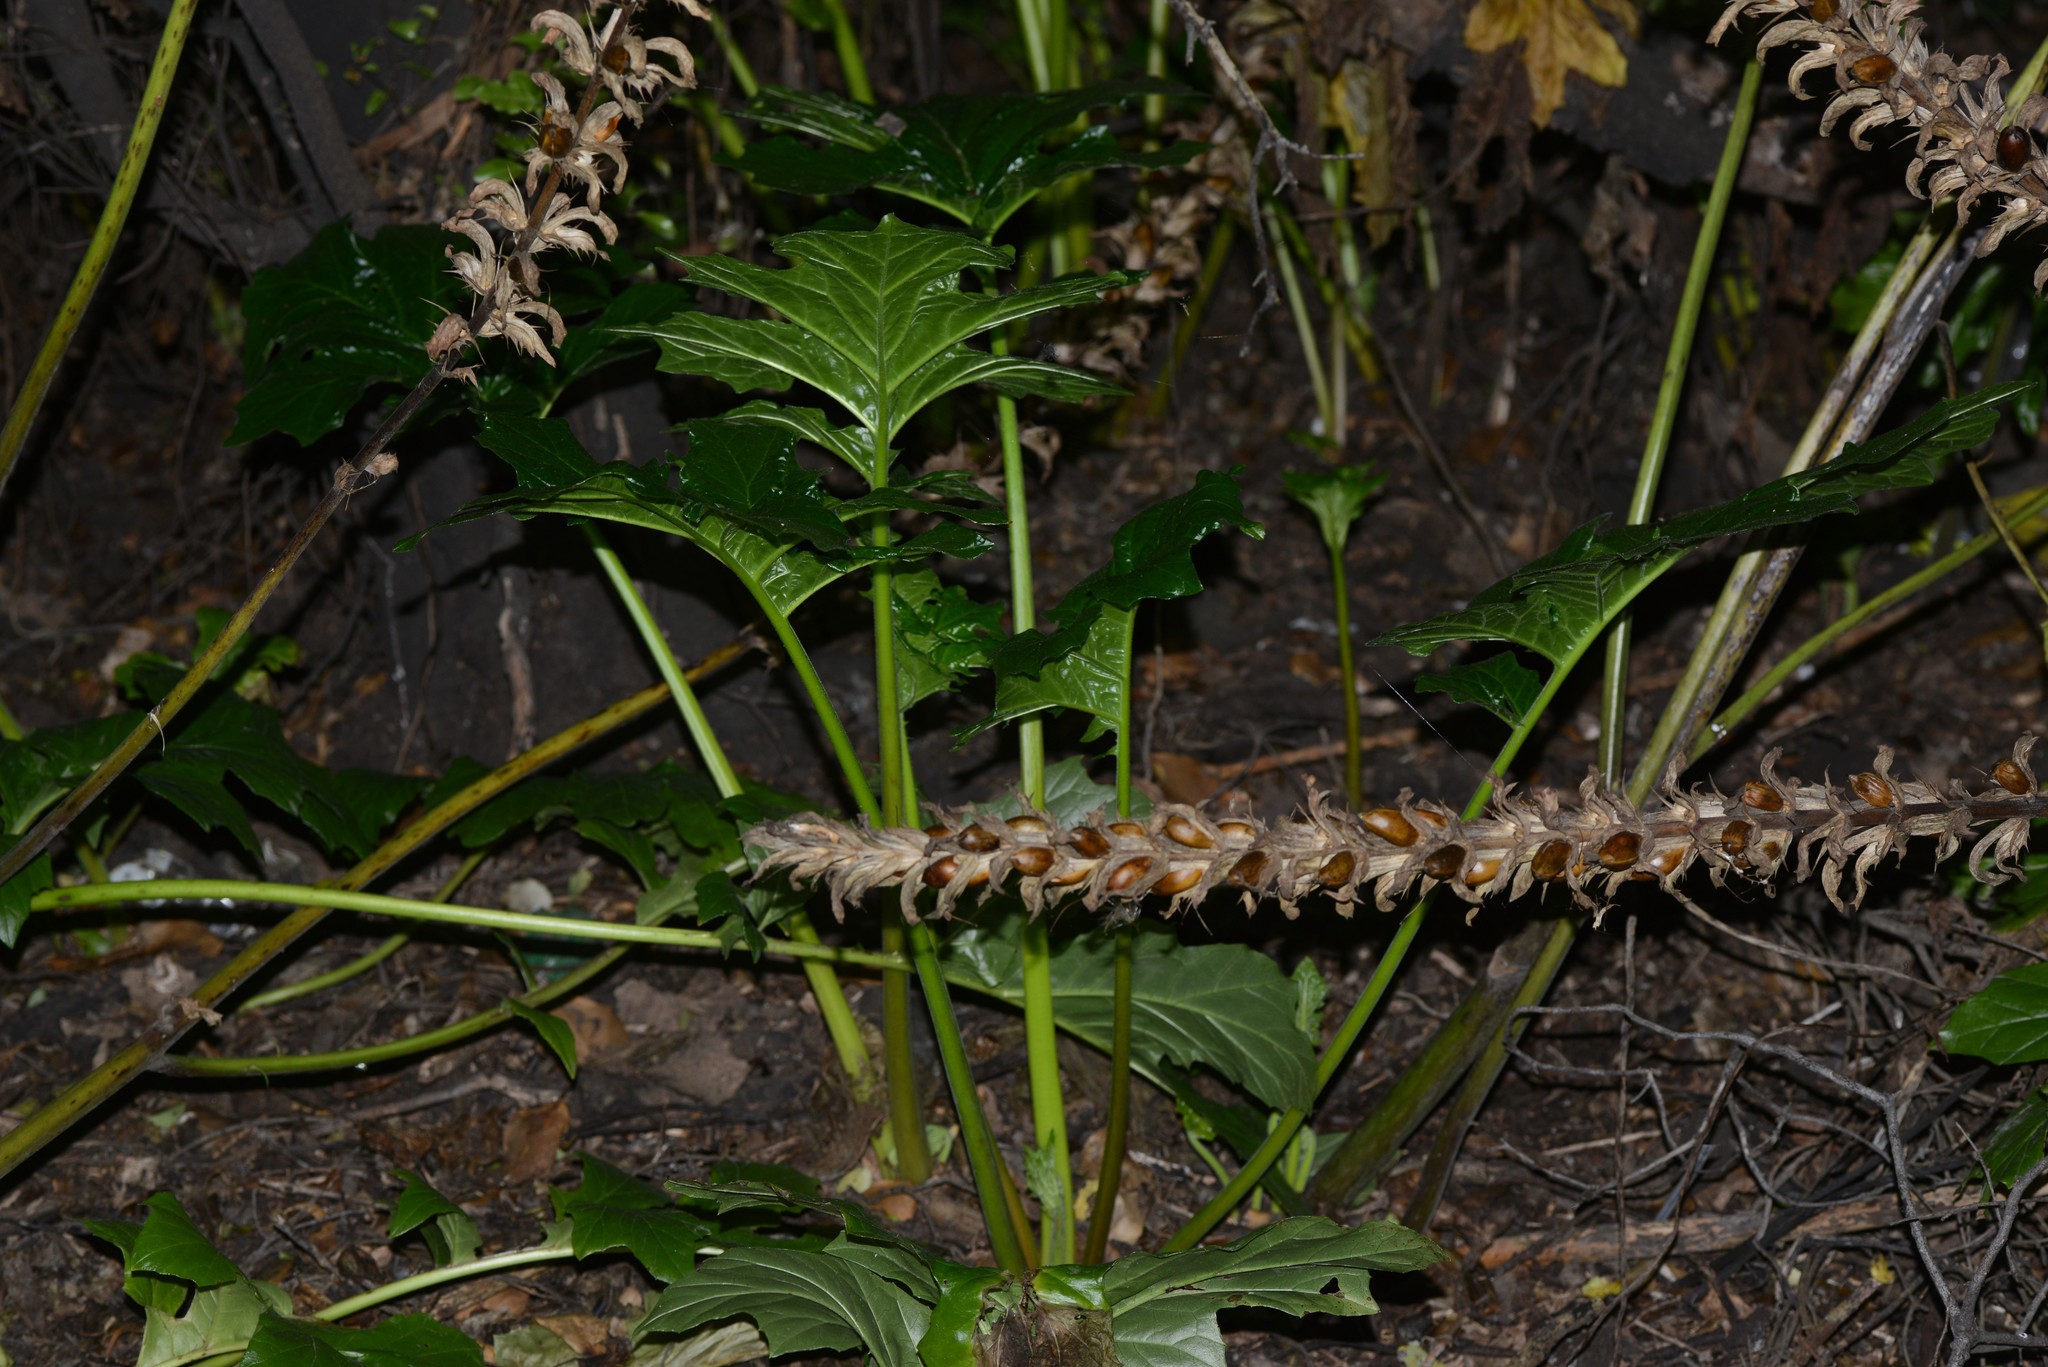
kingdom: Plantae
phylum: Tracheophyta
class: Magnoliopsida
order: Lamiales
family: Acanthaceae
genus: Acanthus
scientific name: Acanthus mollis
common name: Bear's-breech
